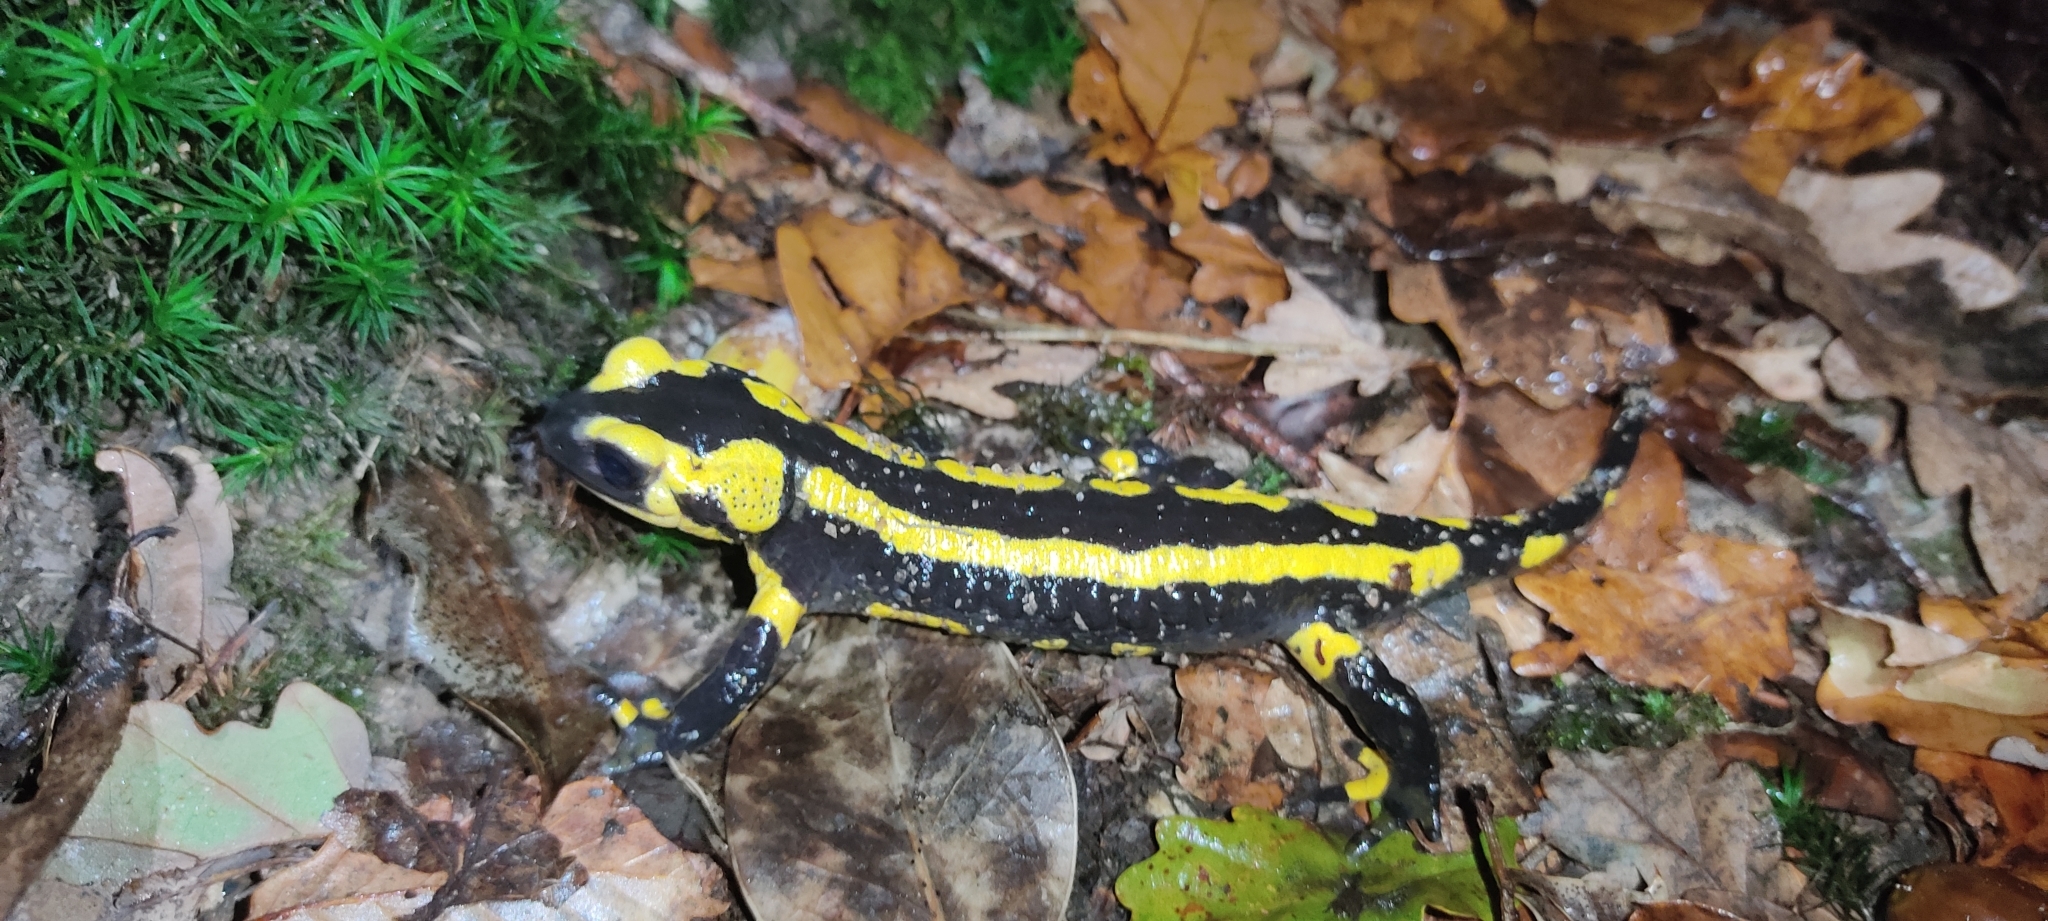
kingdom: Animalia
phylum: Chordata
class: Amphibia
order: Caudata
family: Salamandridae
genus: Salamandra
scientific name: Salamandra salamandra
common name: Fire salamander
